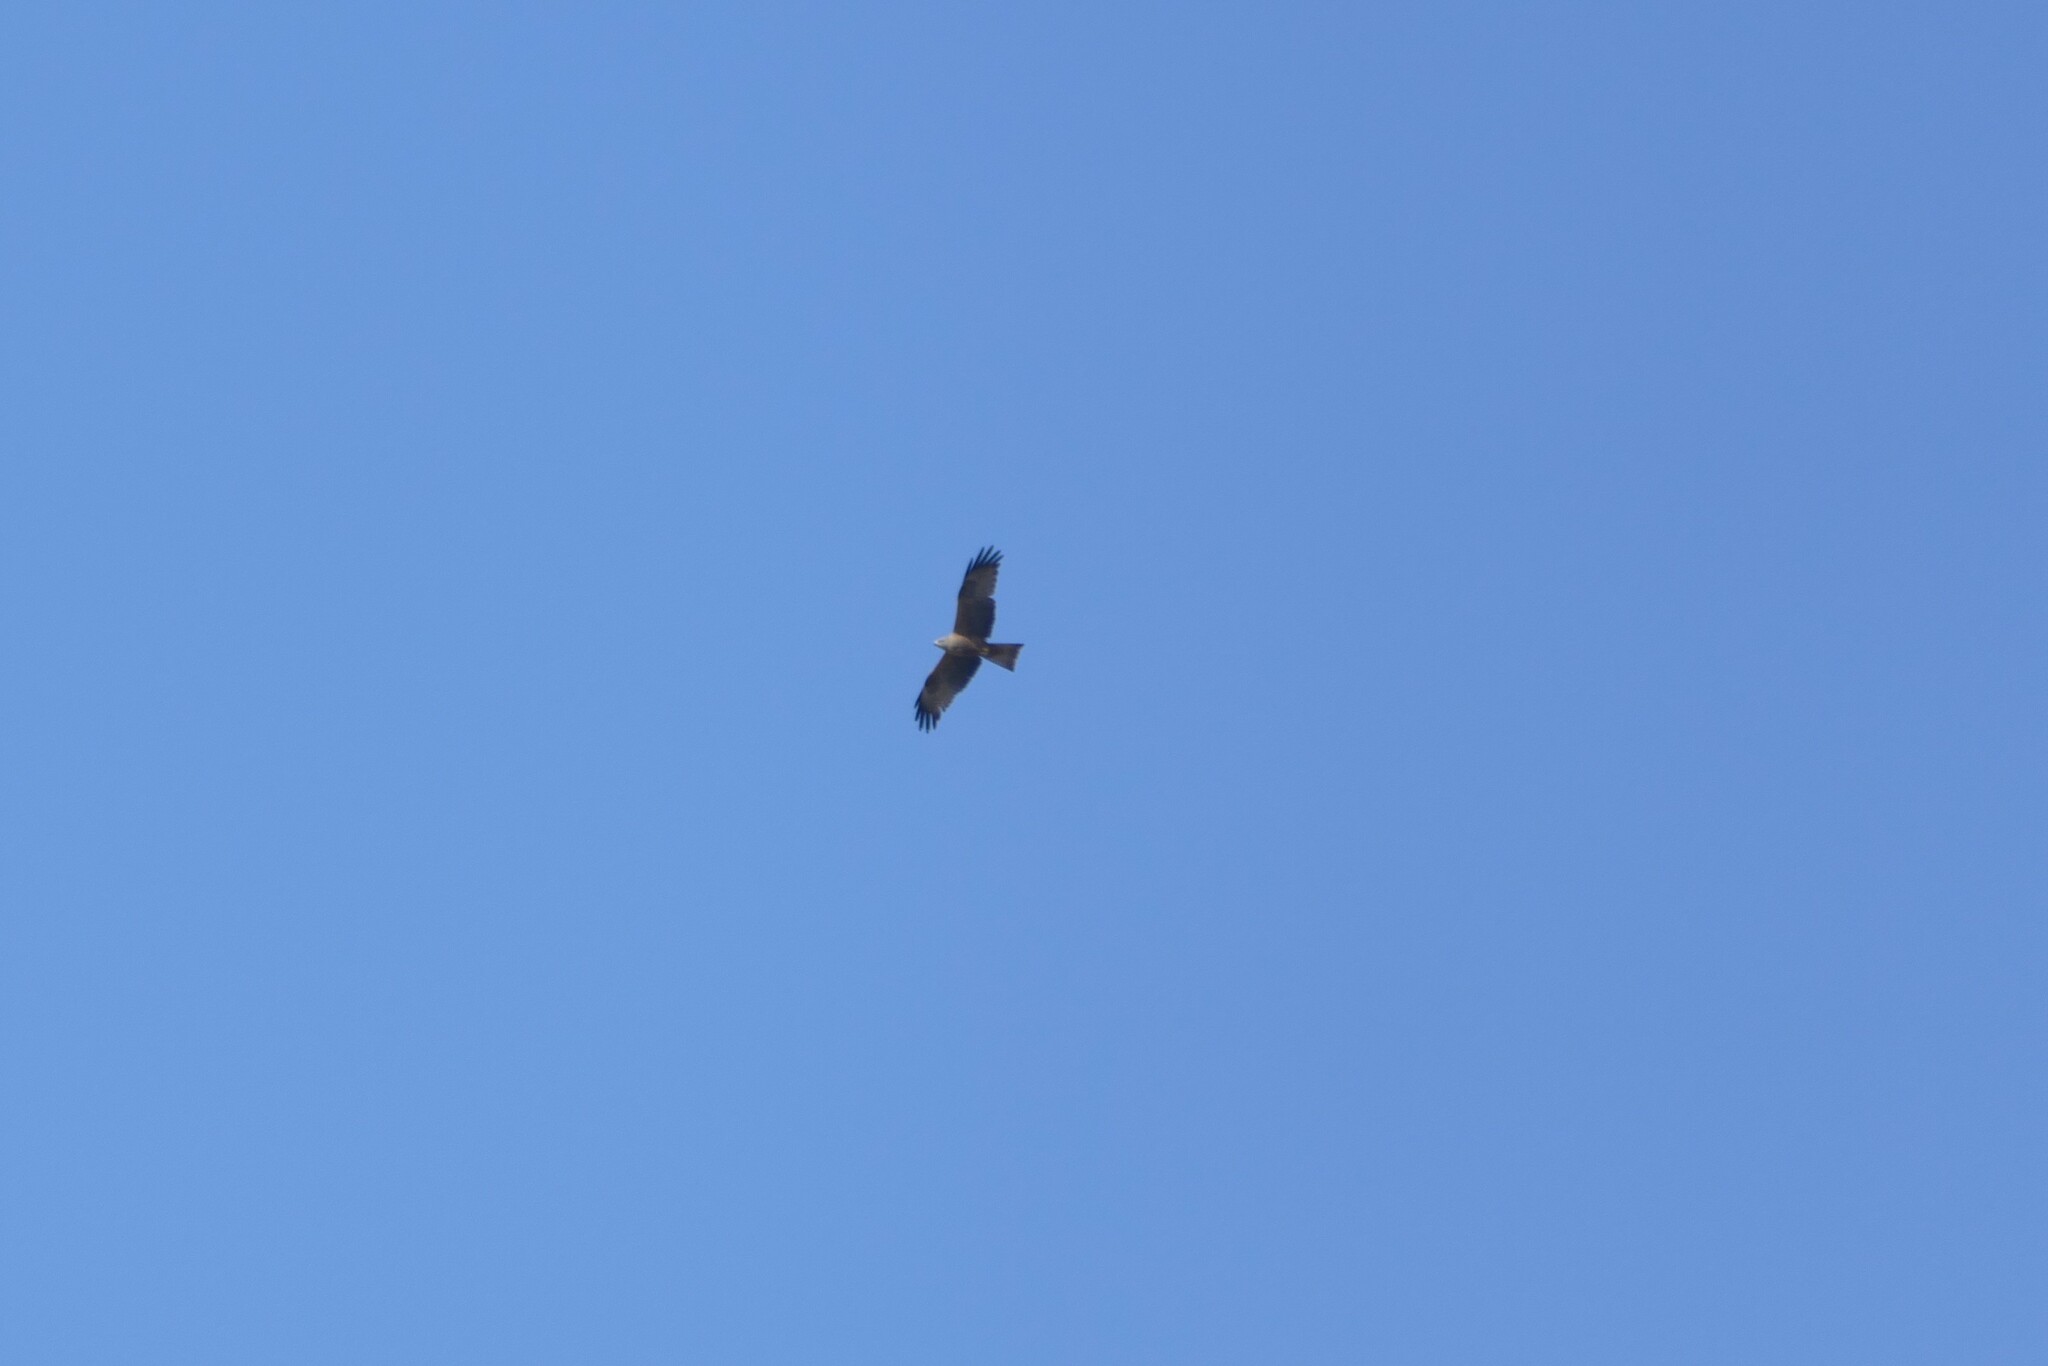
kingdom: Animalia
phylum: Chordata
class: Aves
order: Accipitriformes
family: Accipitridae
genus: Milvus
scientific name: Milvus migrans
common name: Black kite
